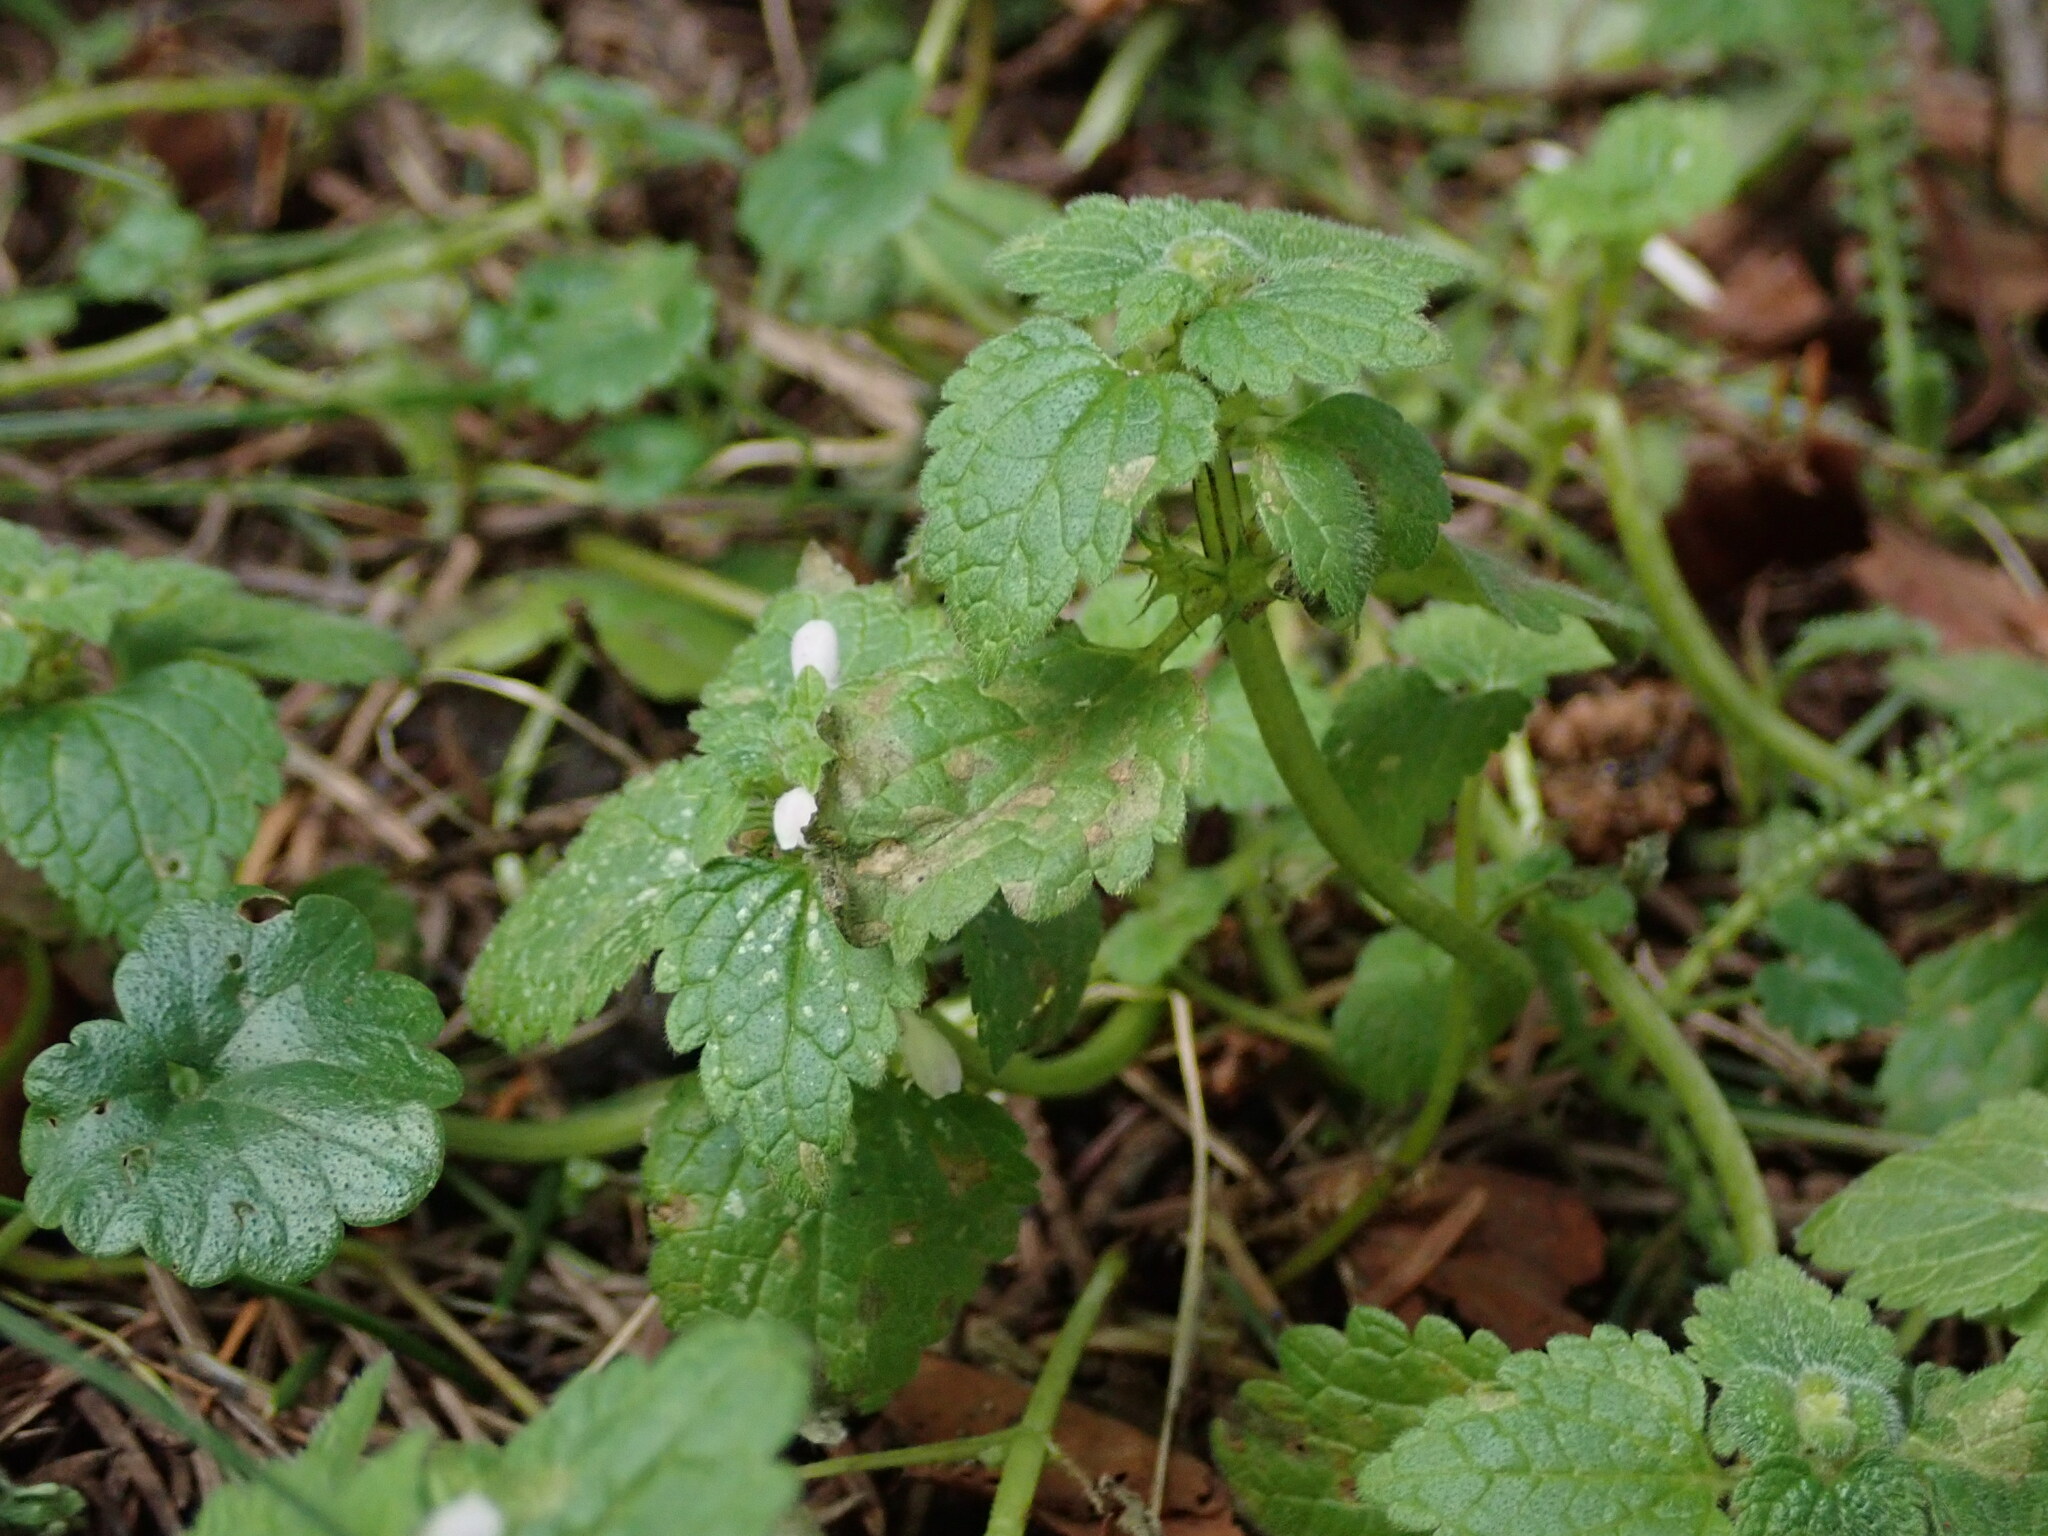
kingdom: Plantae
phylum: Tracheophyta
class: Magnoliopsida
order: Lamiales
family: Lamiaceae
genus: Lamium
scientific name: Lamium purpureum
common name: Red dead-nettle
